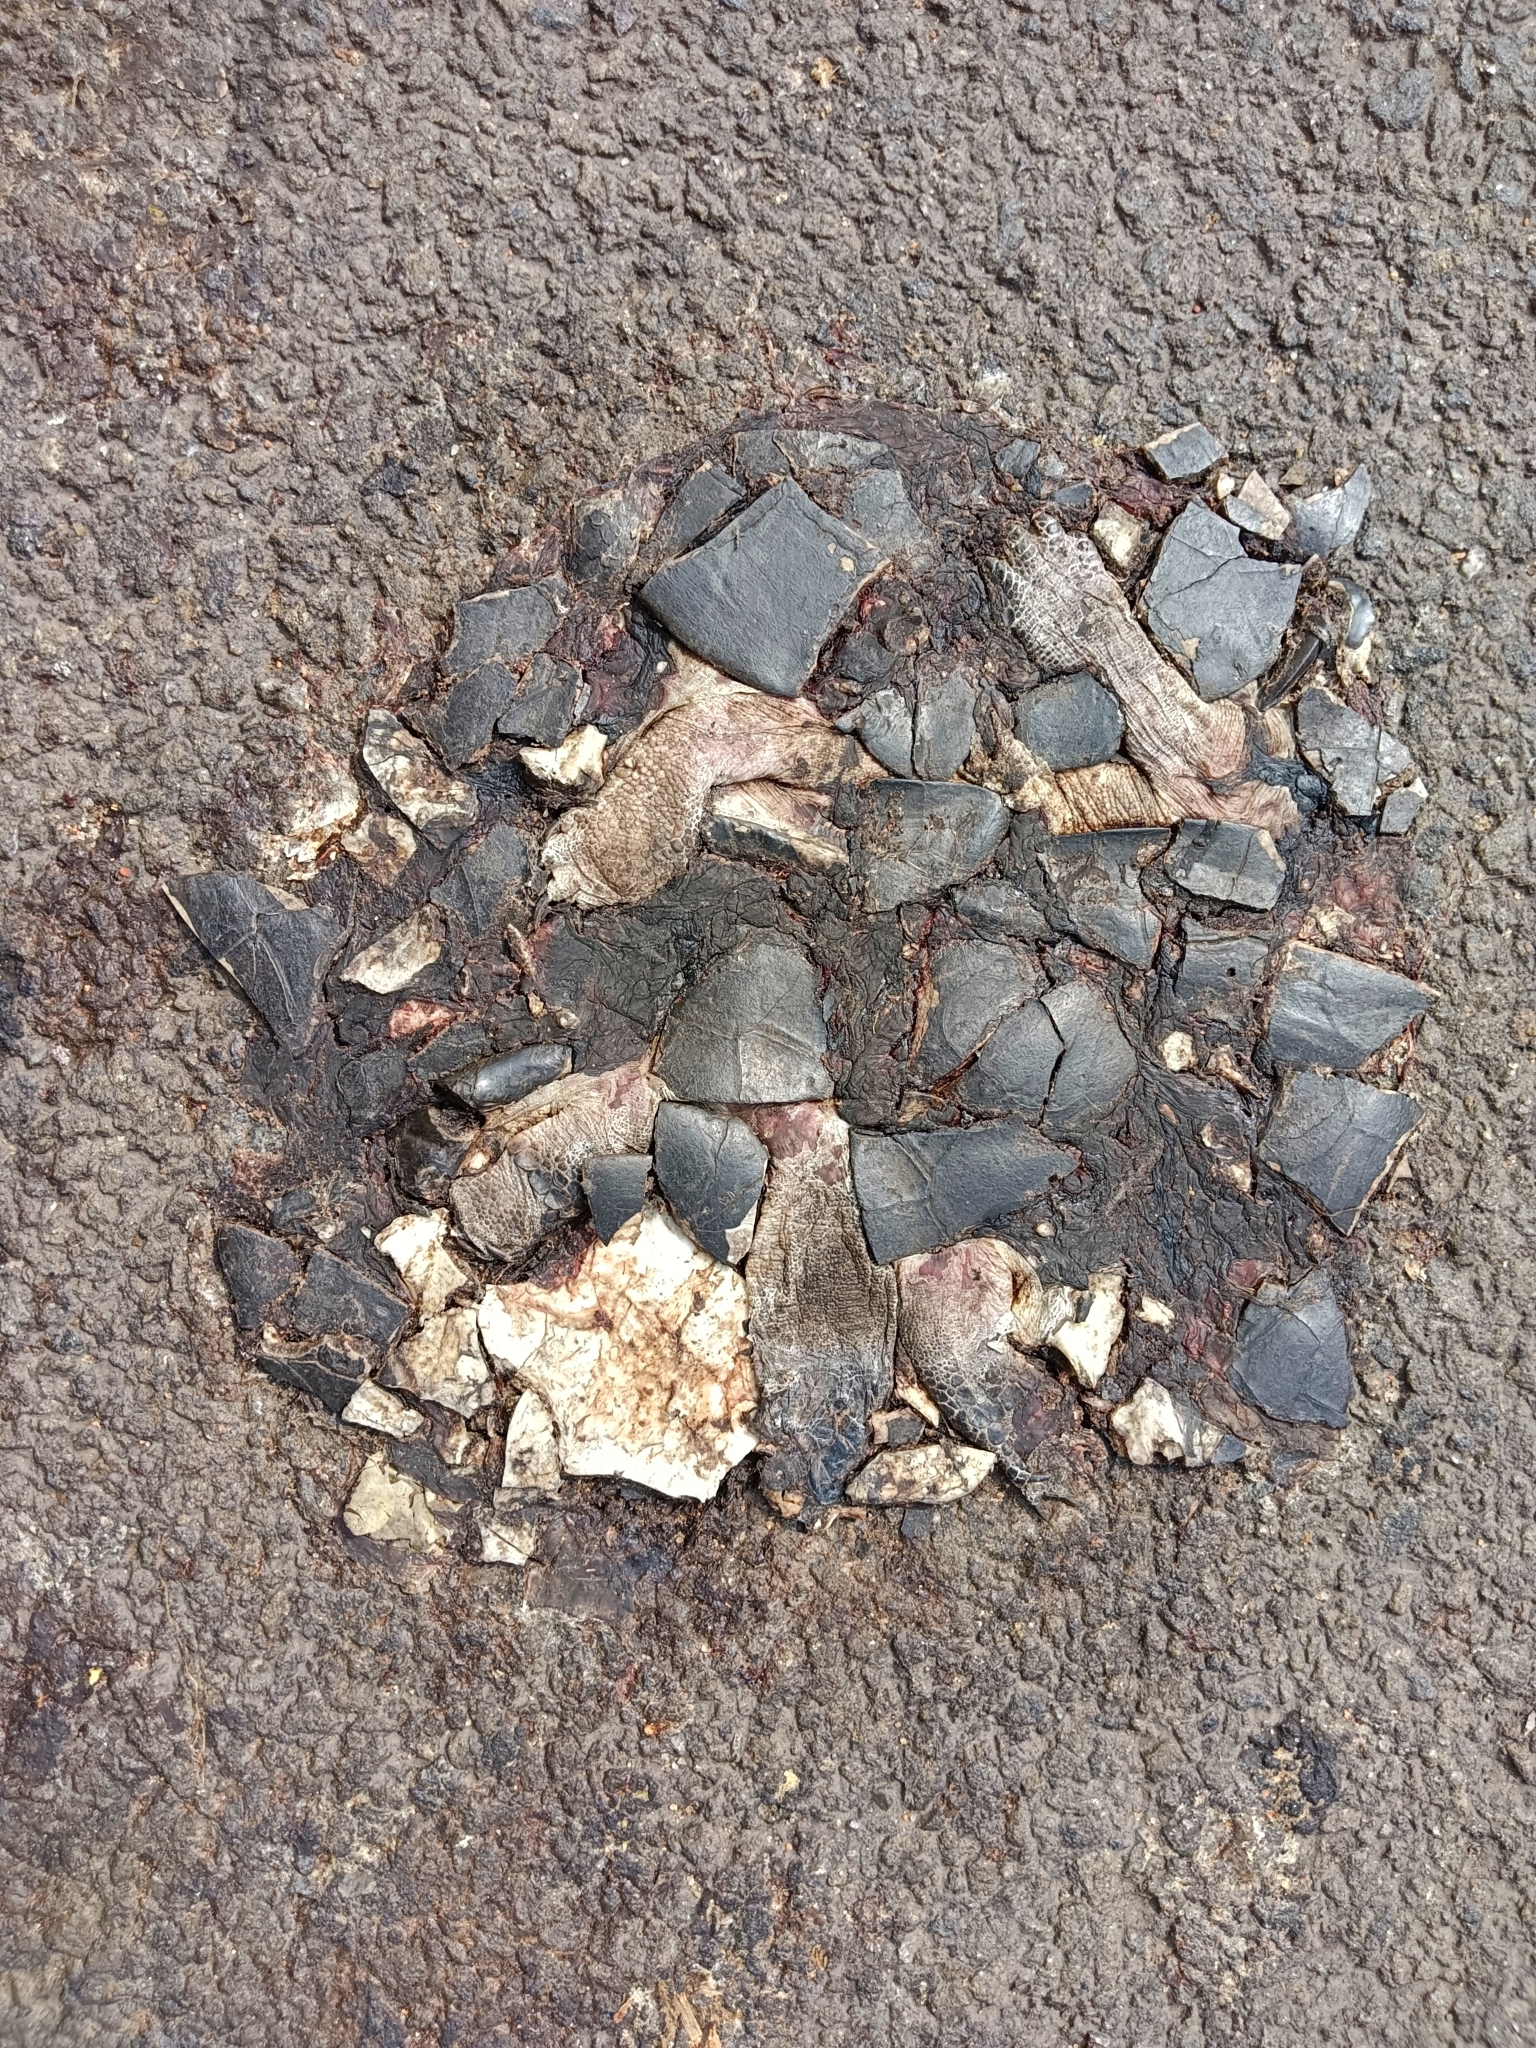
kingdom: Animalia
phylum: Chordata
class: Testudines
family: Geoemydidae
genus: Melanochelys
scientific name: Melanochelys trijuga
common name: Indian black turtle
